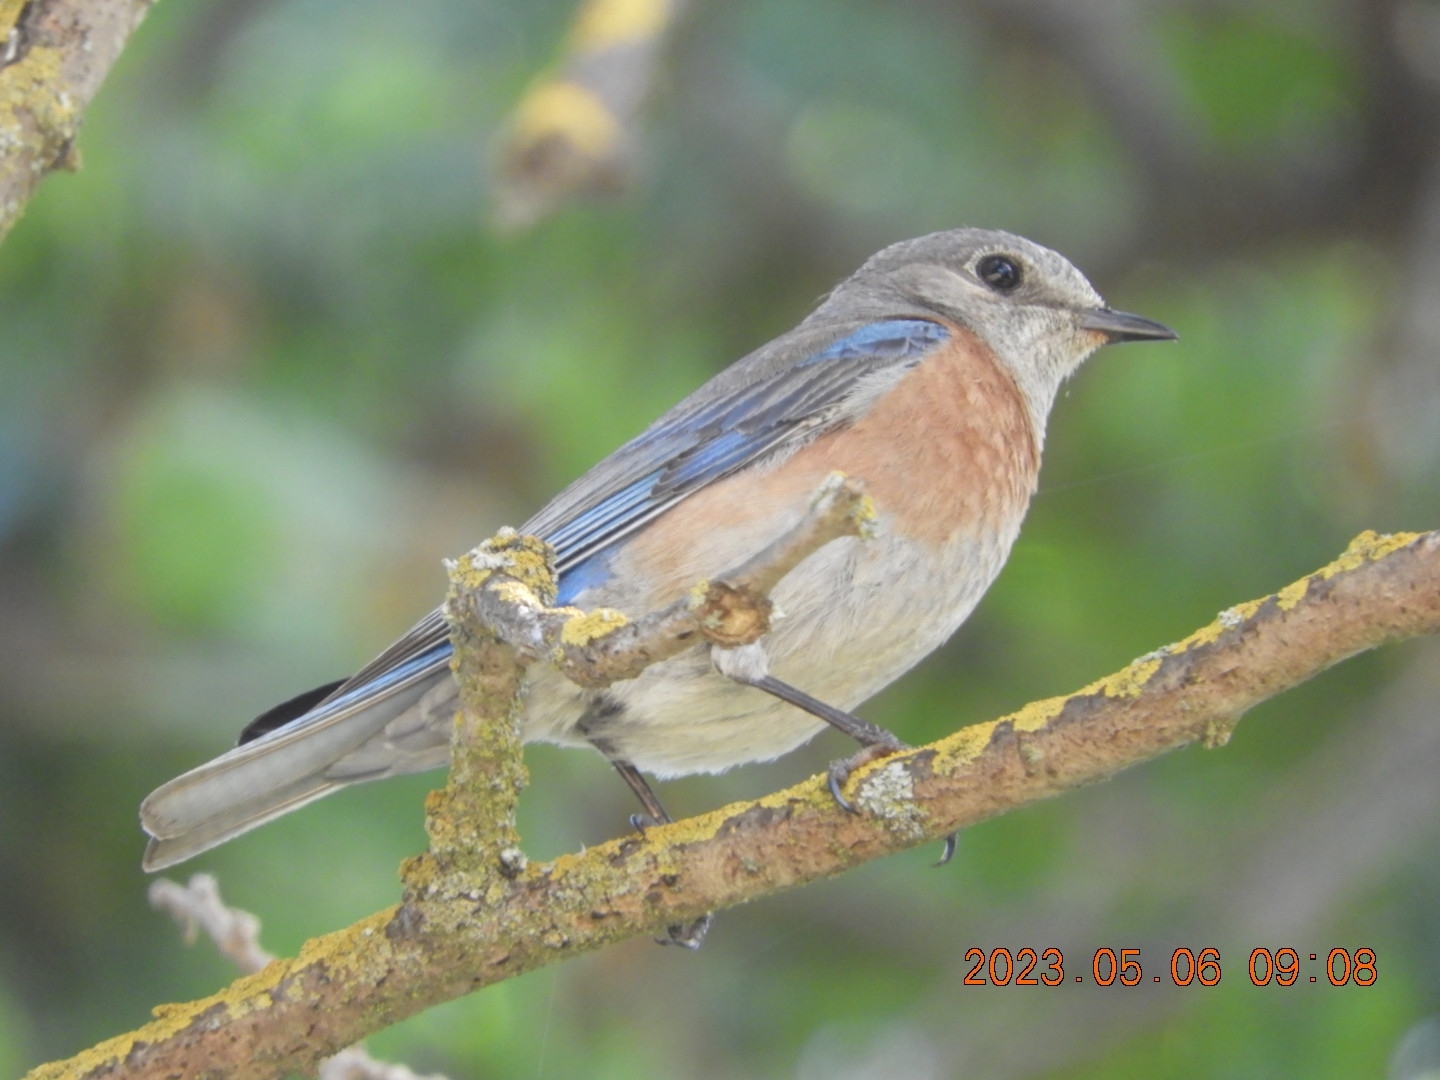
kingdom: Animalia
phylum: Chordata
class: Aves
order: Passeriformes
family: Turdidae
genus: Sialia
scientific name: Sialia mexicana
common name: Western bluebird
